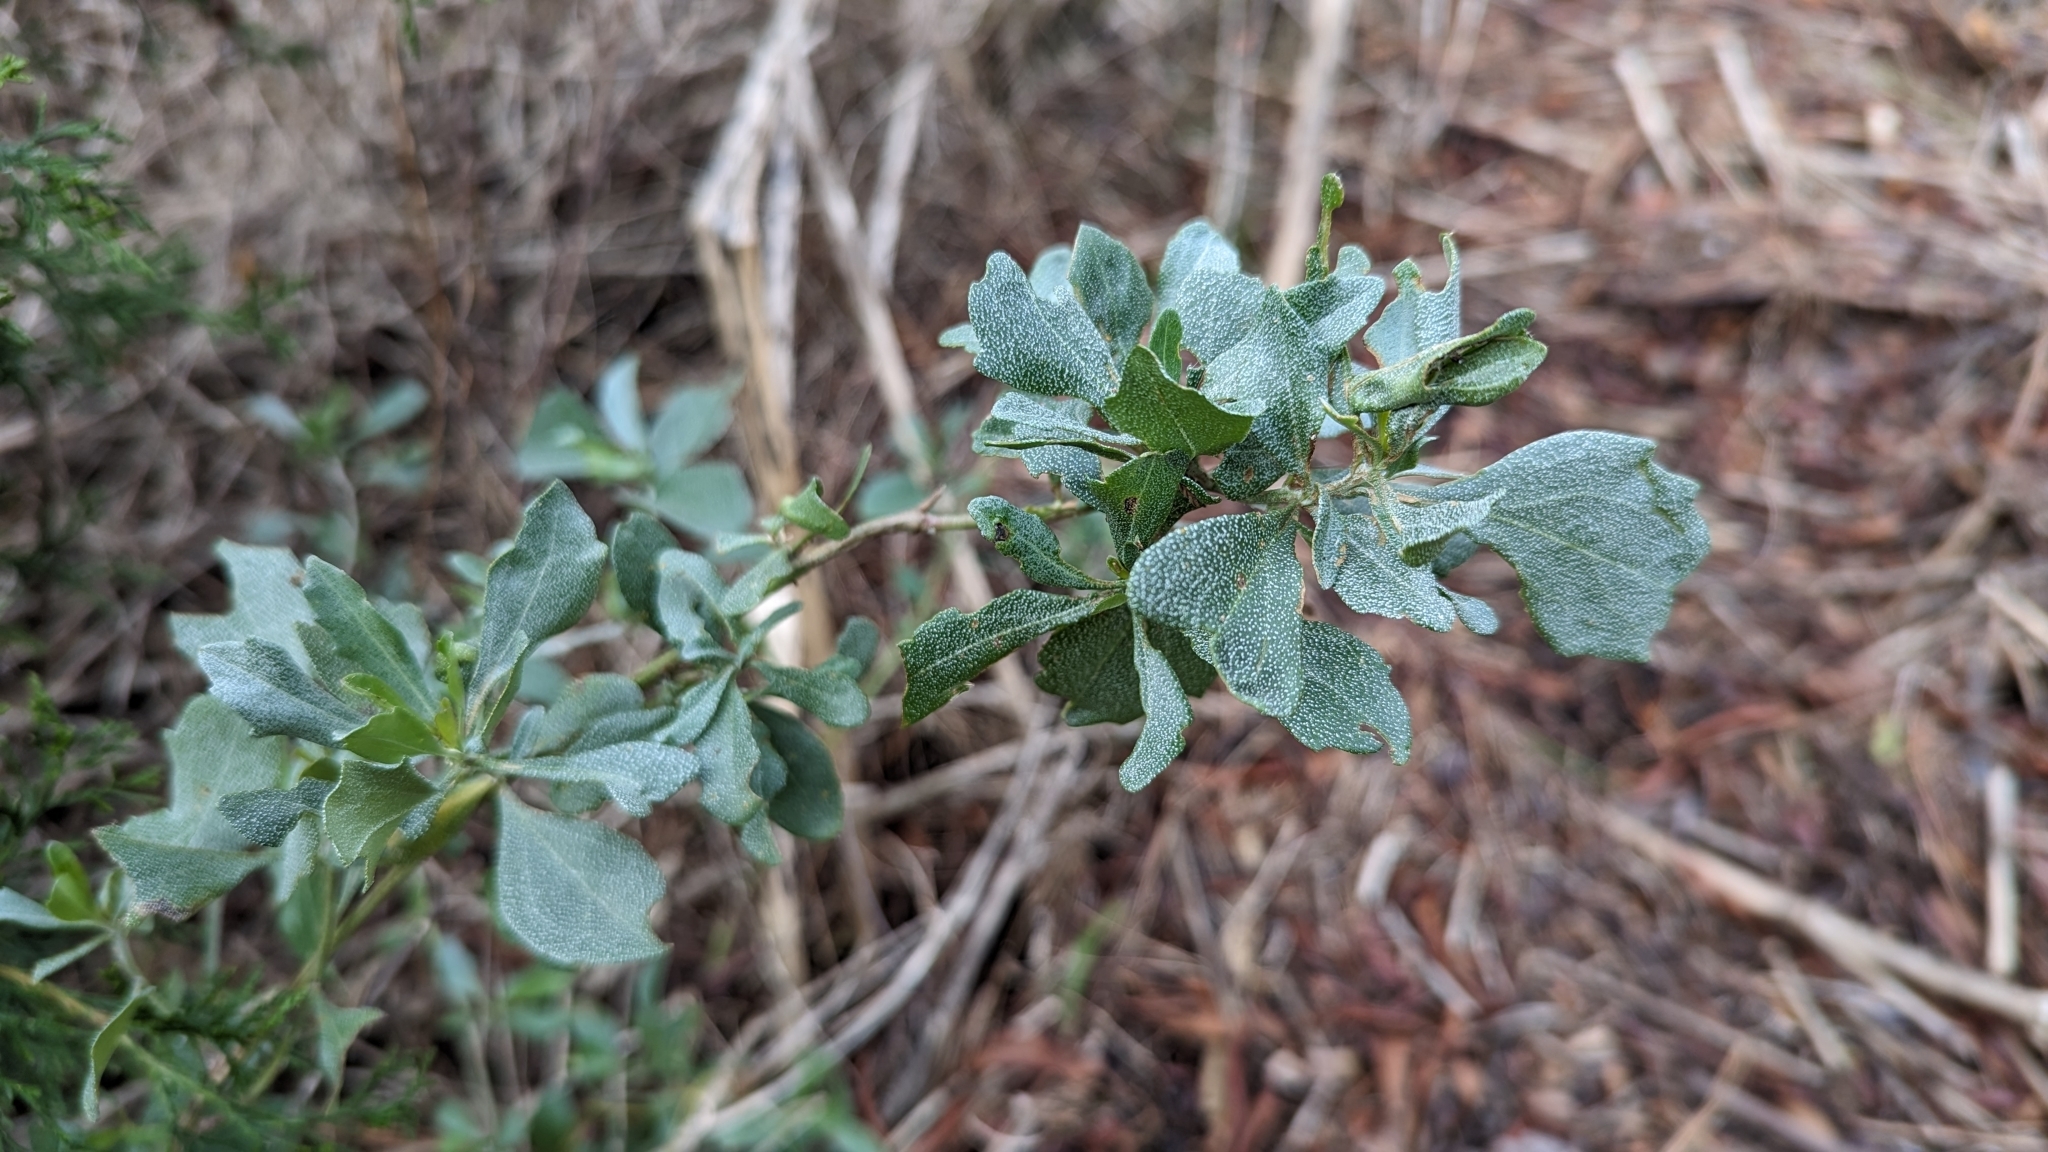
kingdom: Plantae
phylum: Tracheophyta
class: Magnoliopsida
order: Asterales
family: Asteraceae
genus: Baccharis
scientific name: Baccharis halimifolia
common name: Eastern baccharis
